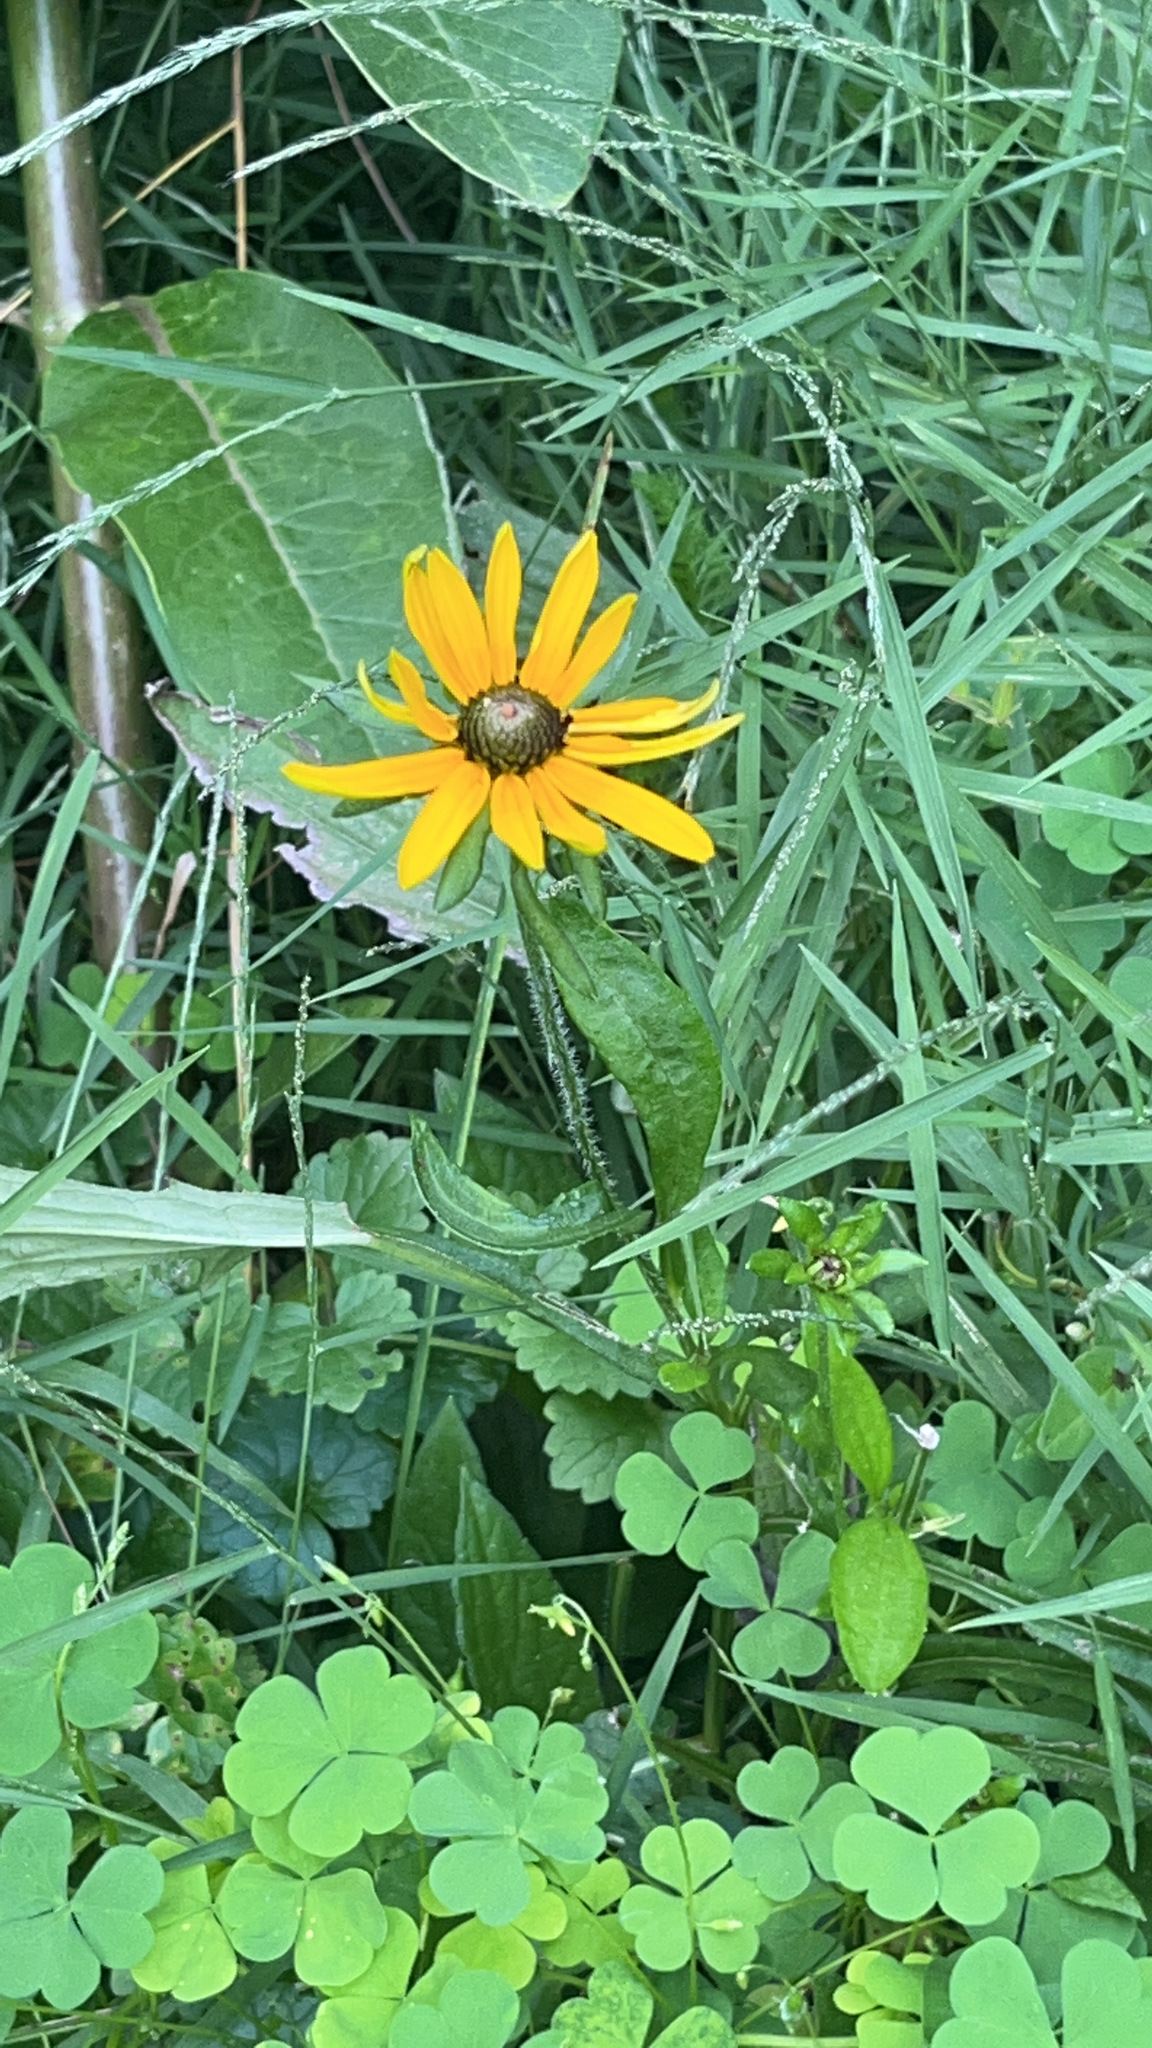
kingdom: Plantae
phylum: Tracheophyta
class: Magnoliopsida
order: Asterales
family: Asteraceae
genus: Rudbeckia
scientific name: Rudbeckia hirta
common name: Black-eyed-susan
